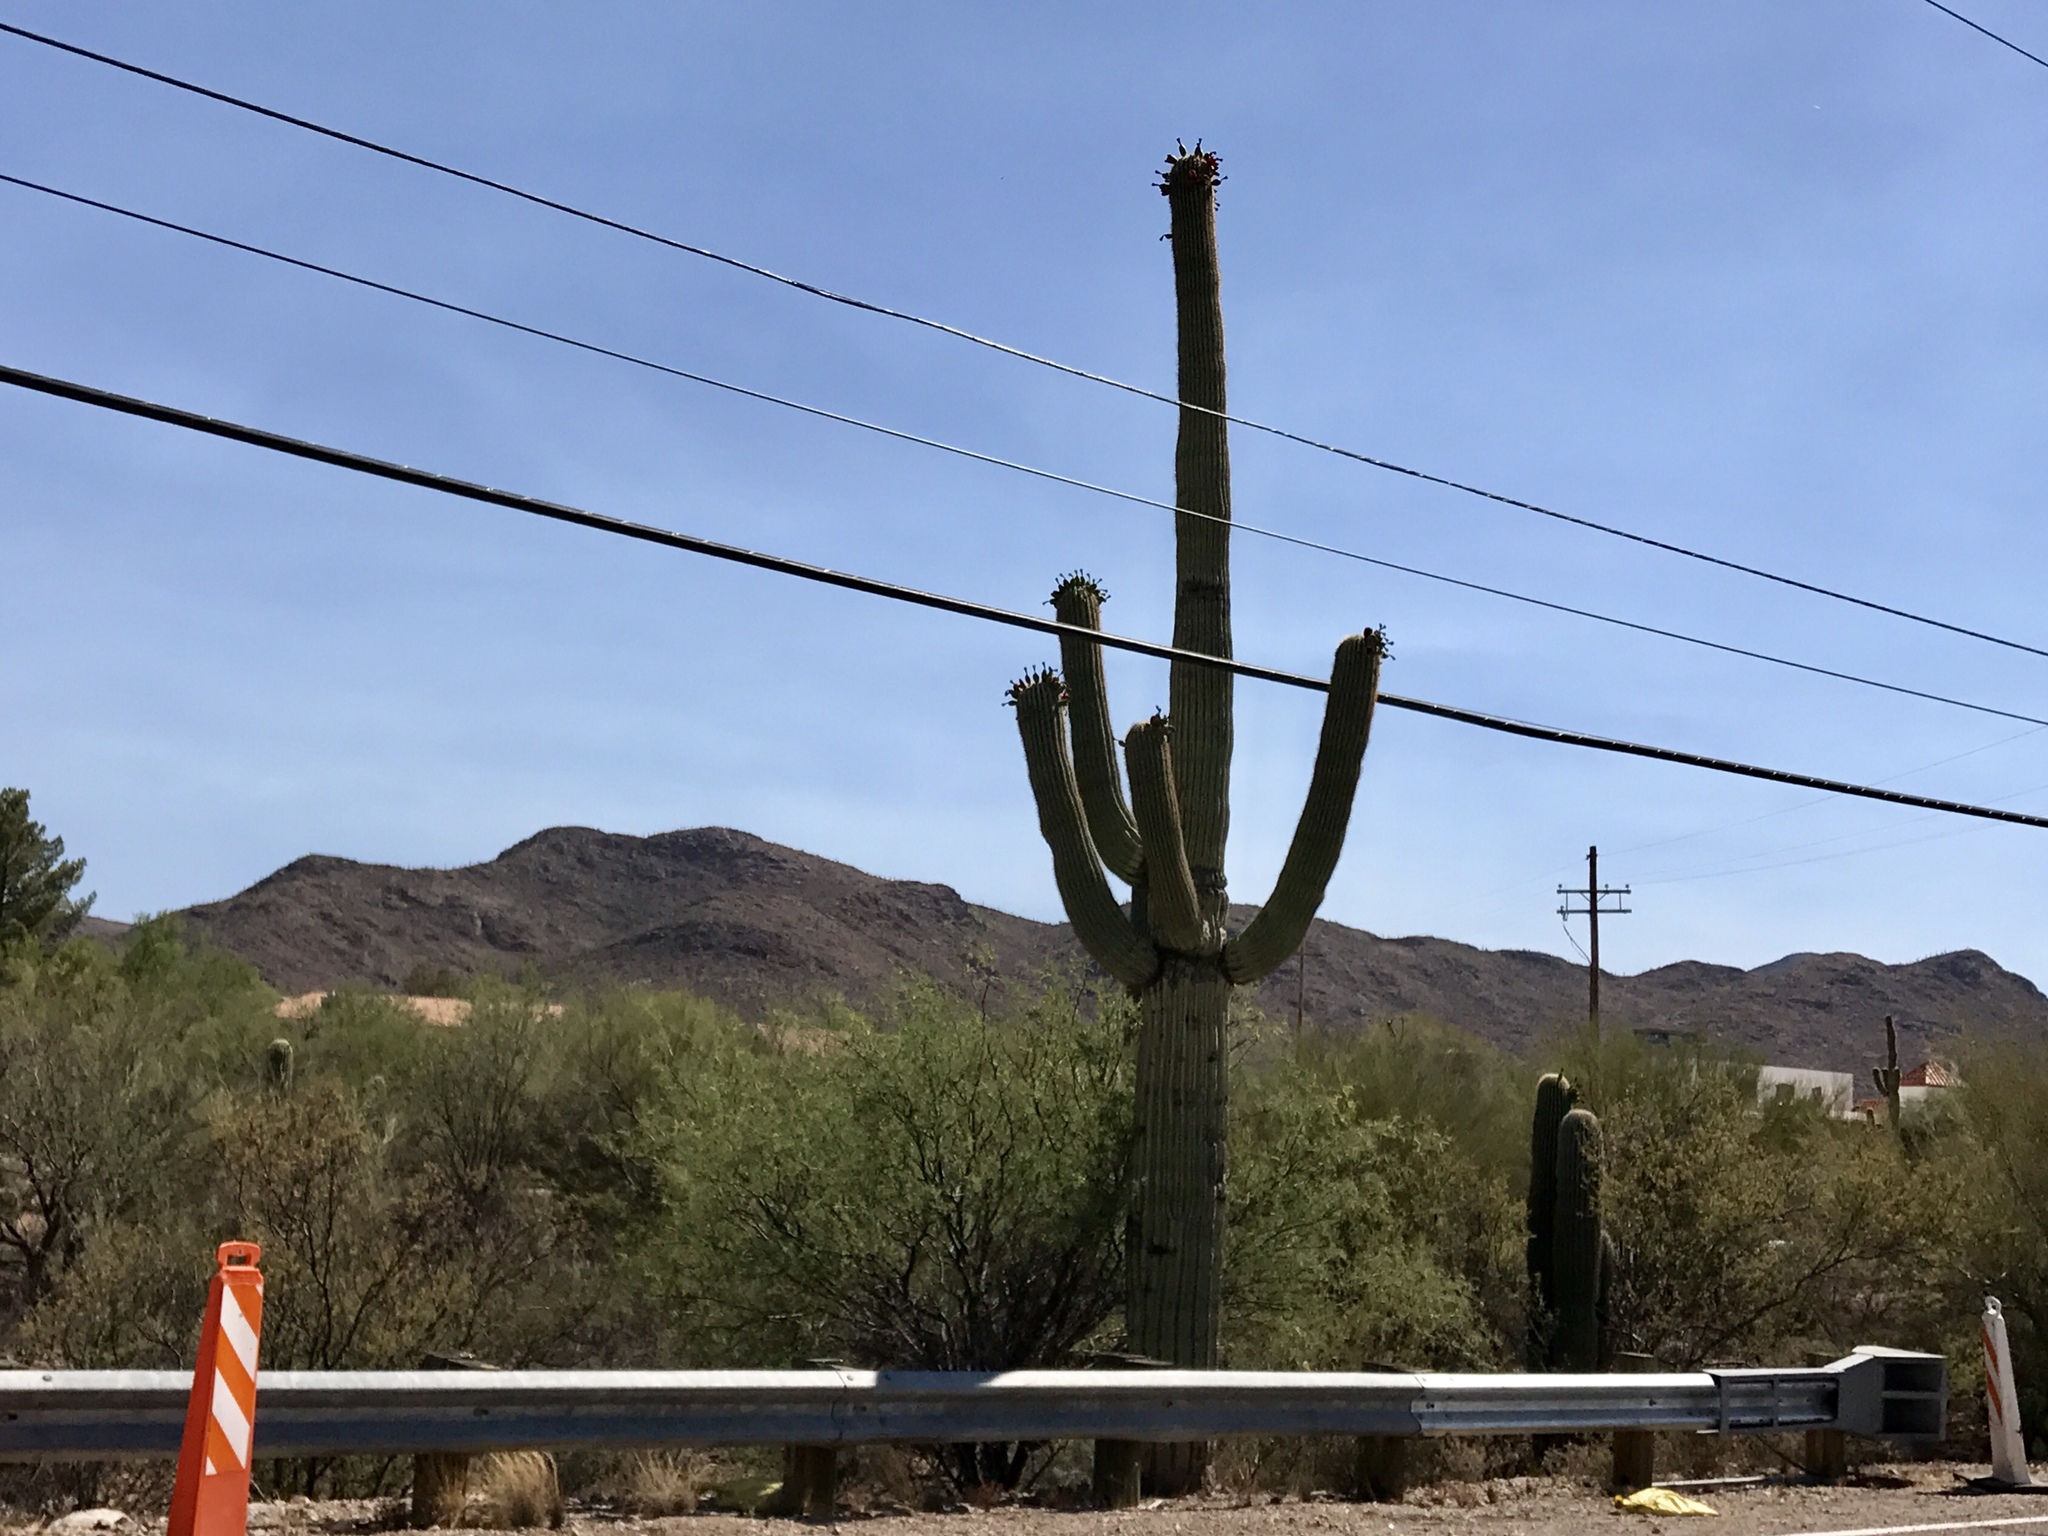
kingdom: Plantae
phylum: Tracheophyta
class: Magnoliopsida
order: Caryophyllales
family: Cactaceae
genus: Carnegiea
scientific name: Carnegiea gigantea
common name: Saguaro
